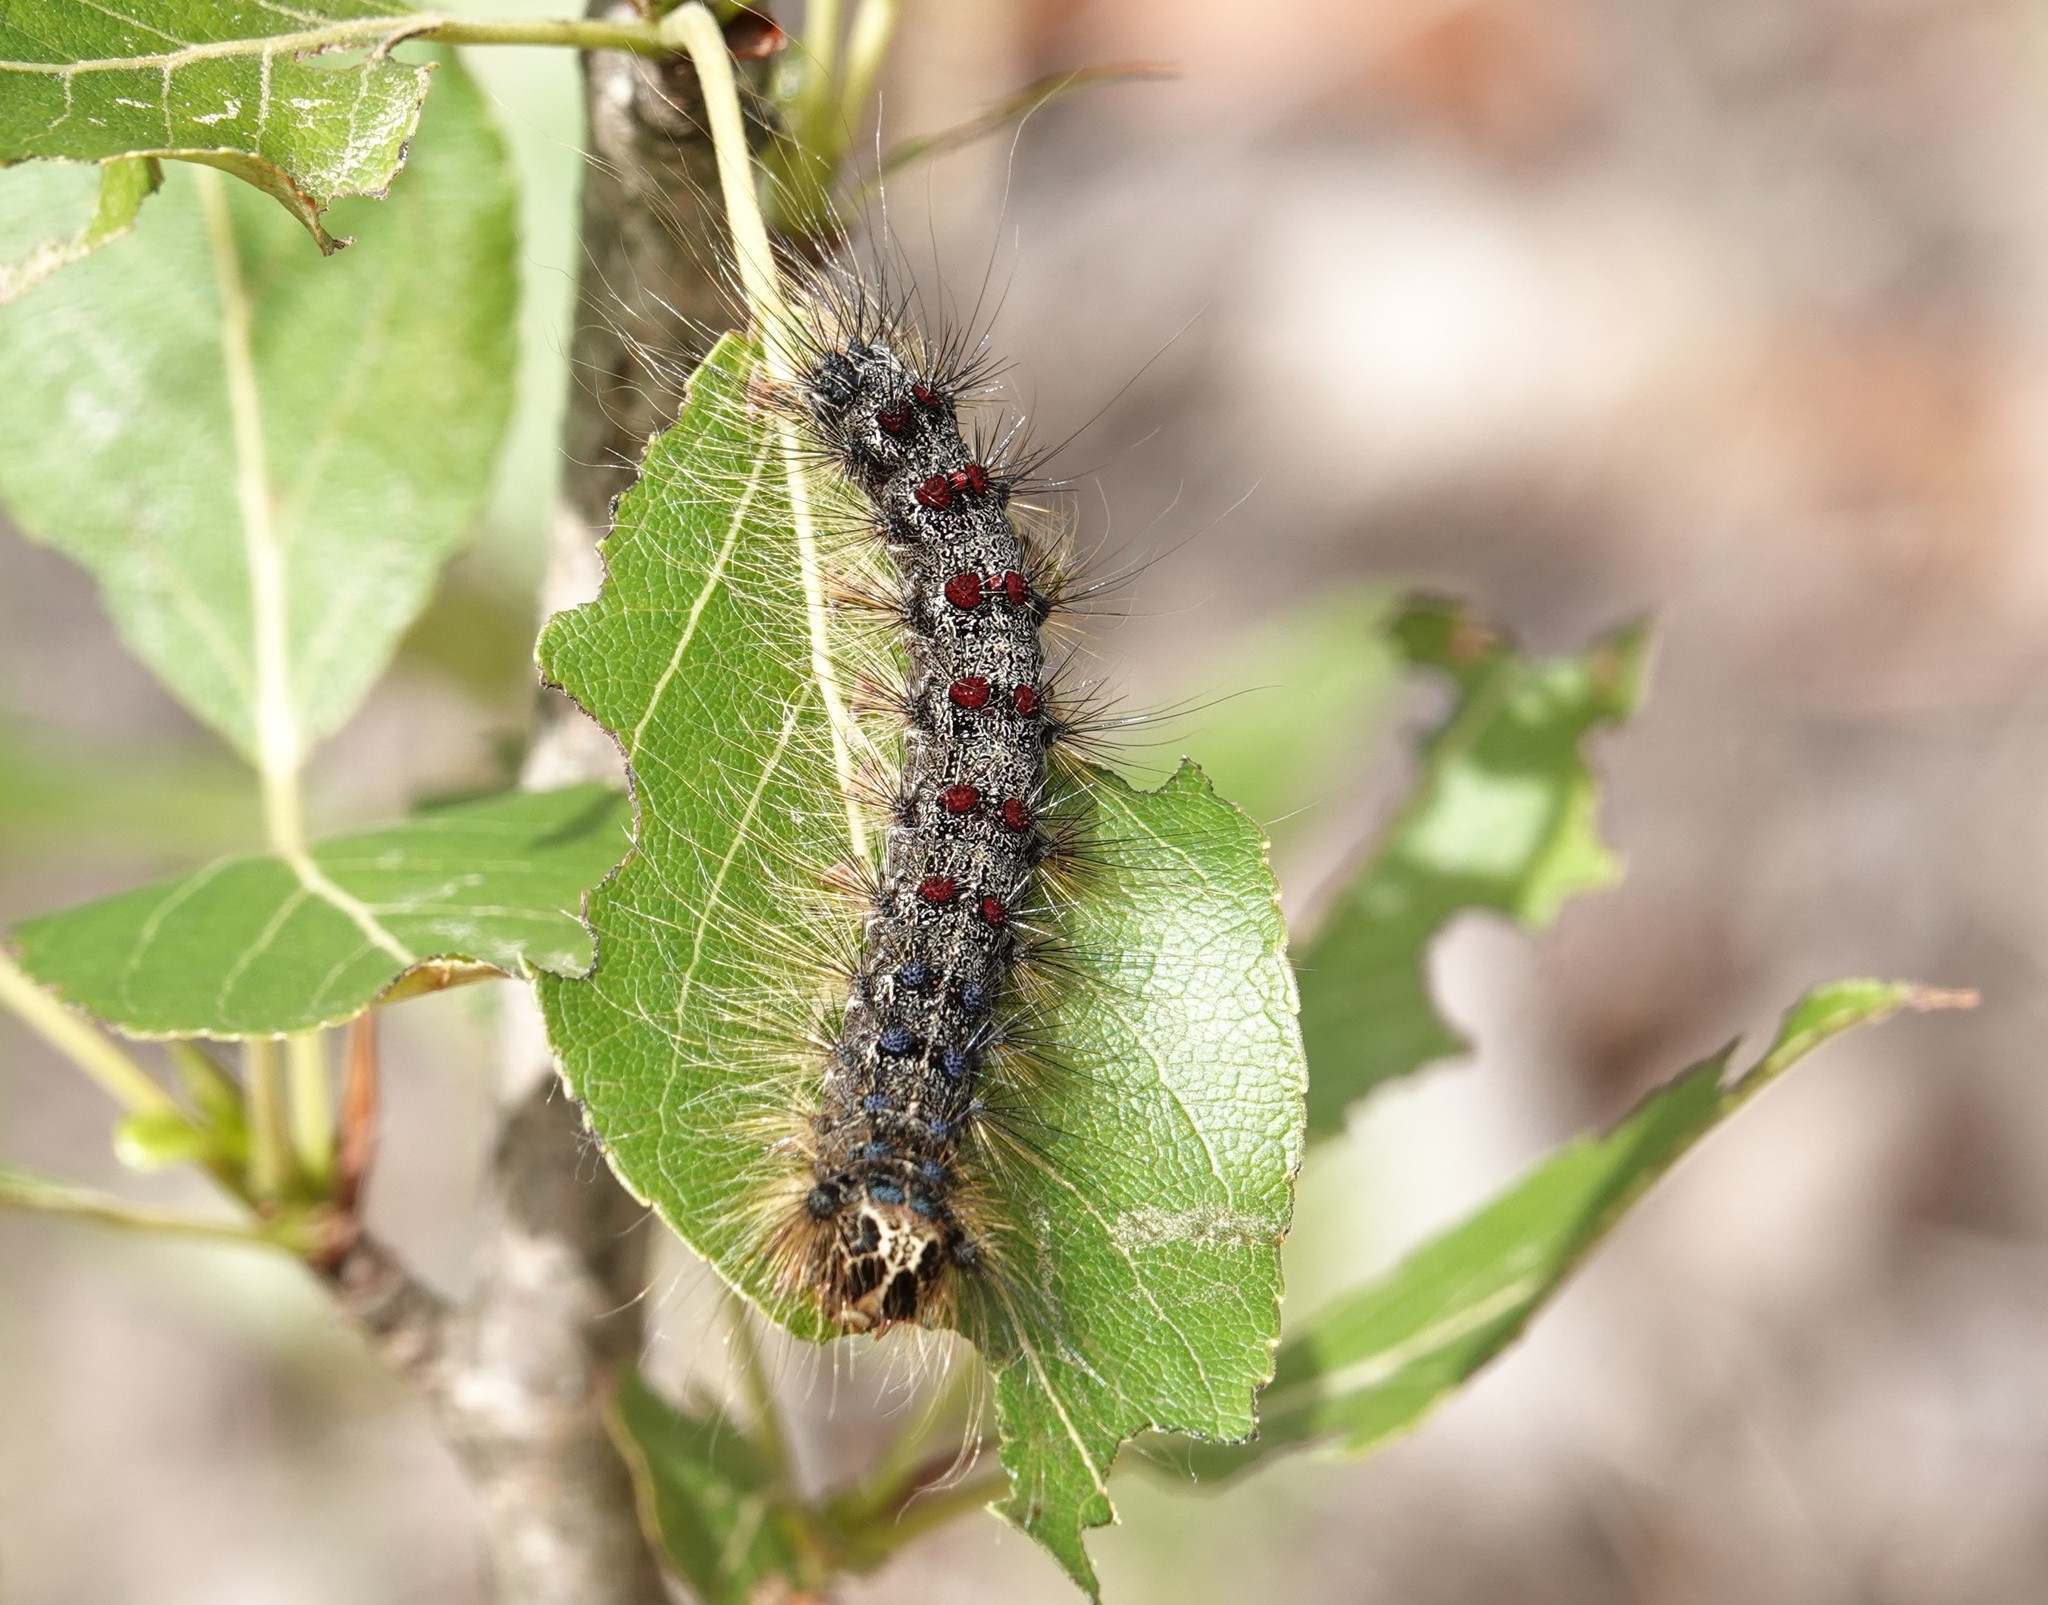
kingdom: Animalia
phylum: Arthropoda
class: Insecta
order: Lepidoptera
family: Erebidae
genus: Lymantria
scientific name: Lymantria dispar
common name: Gypsy moth
